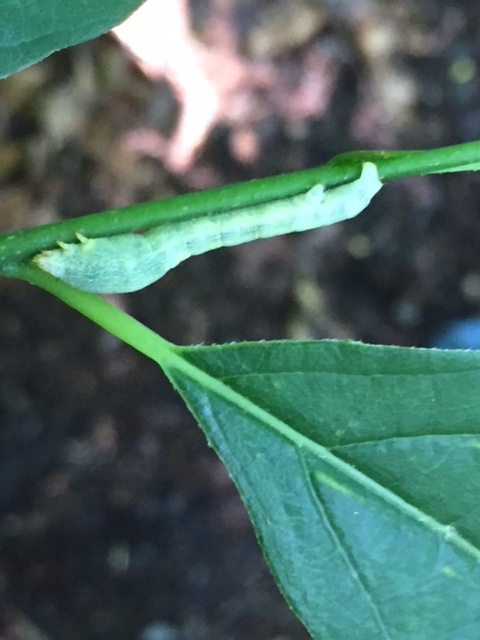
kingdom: Animalia
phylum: Arthropoda
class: Insecta
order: Lepidoptera
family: Geometridae
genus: Epimecis
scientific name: Epimecis hortaria
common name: Tulip-tree beauty
